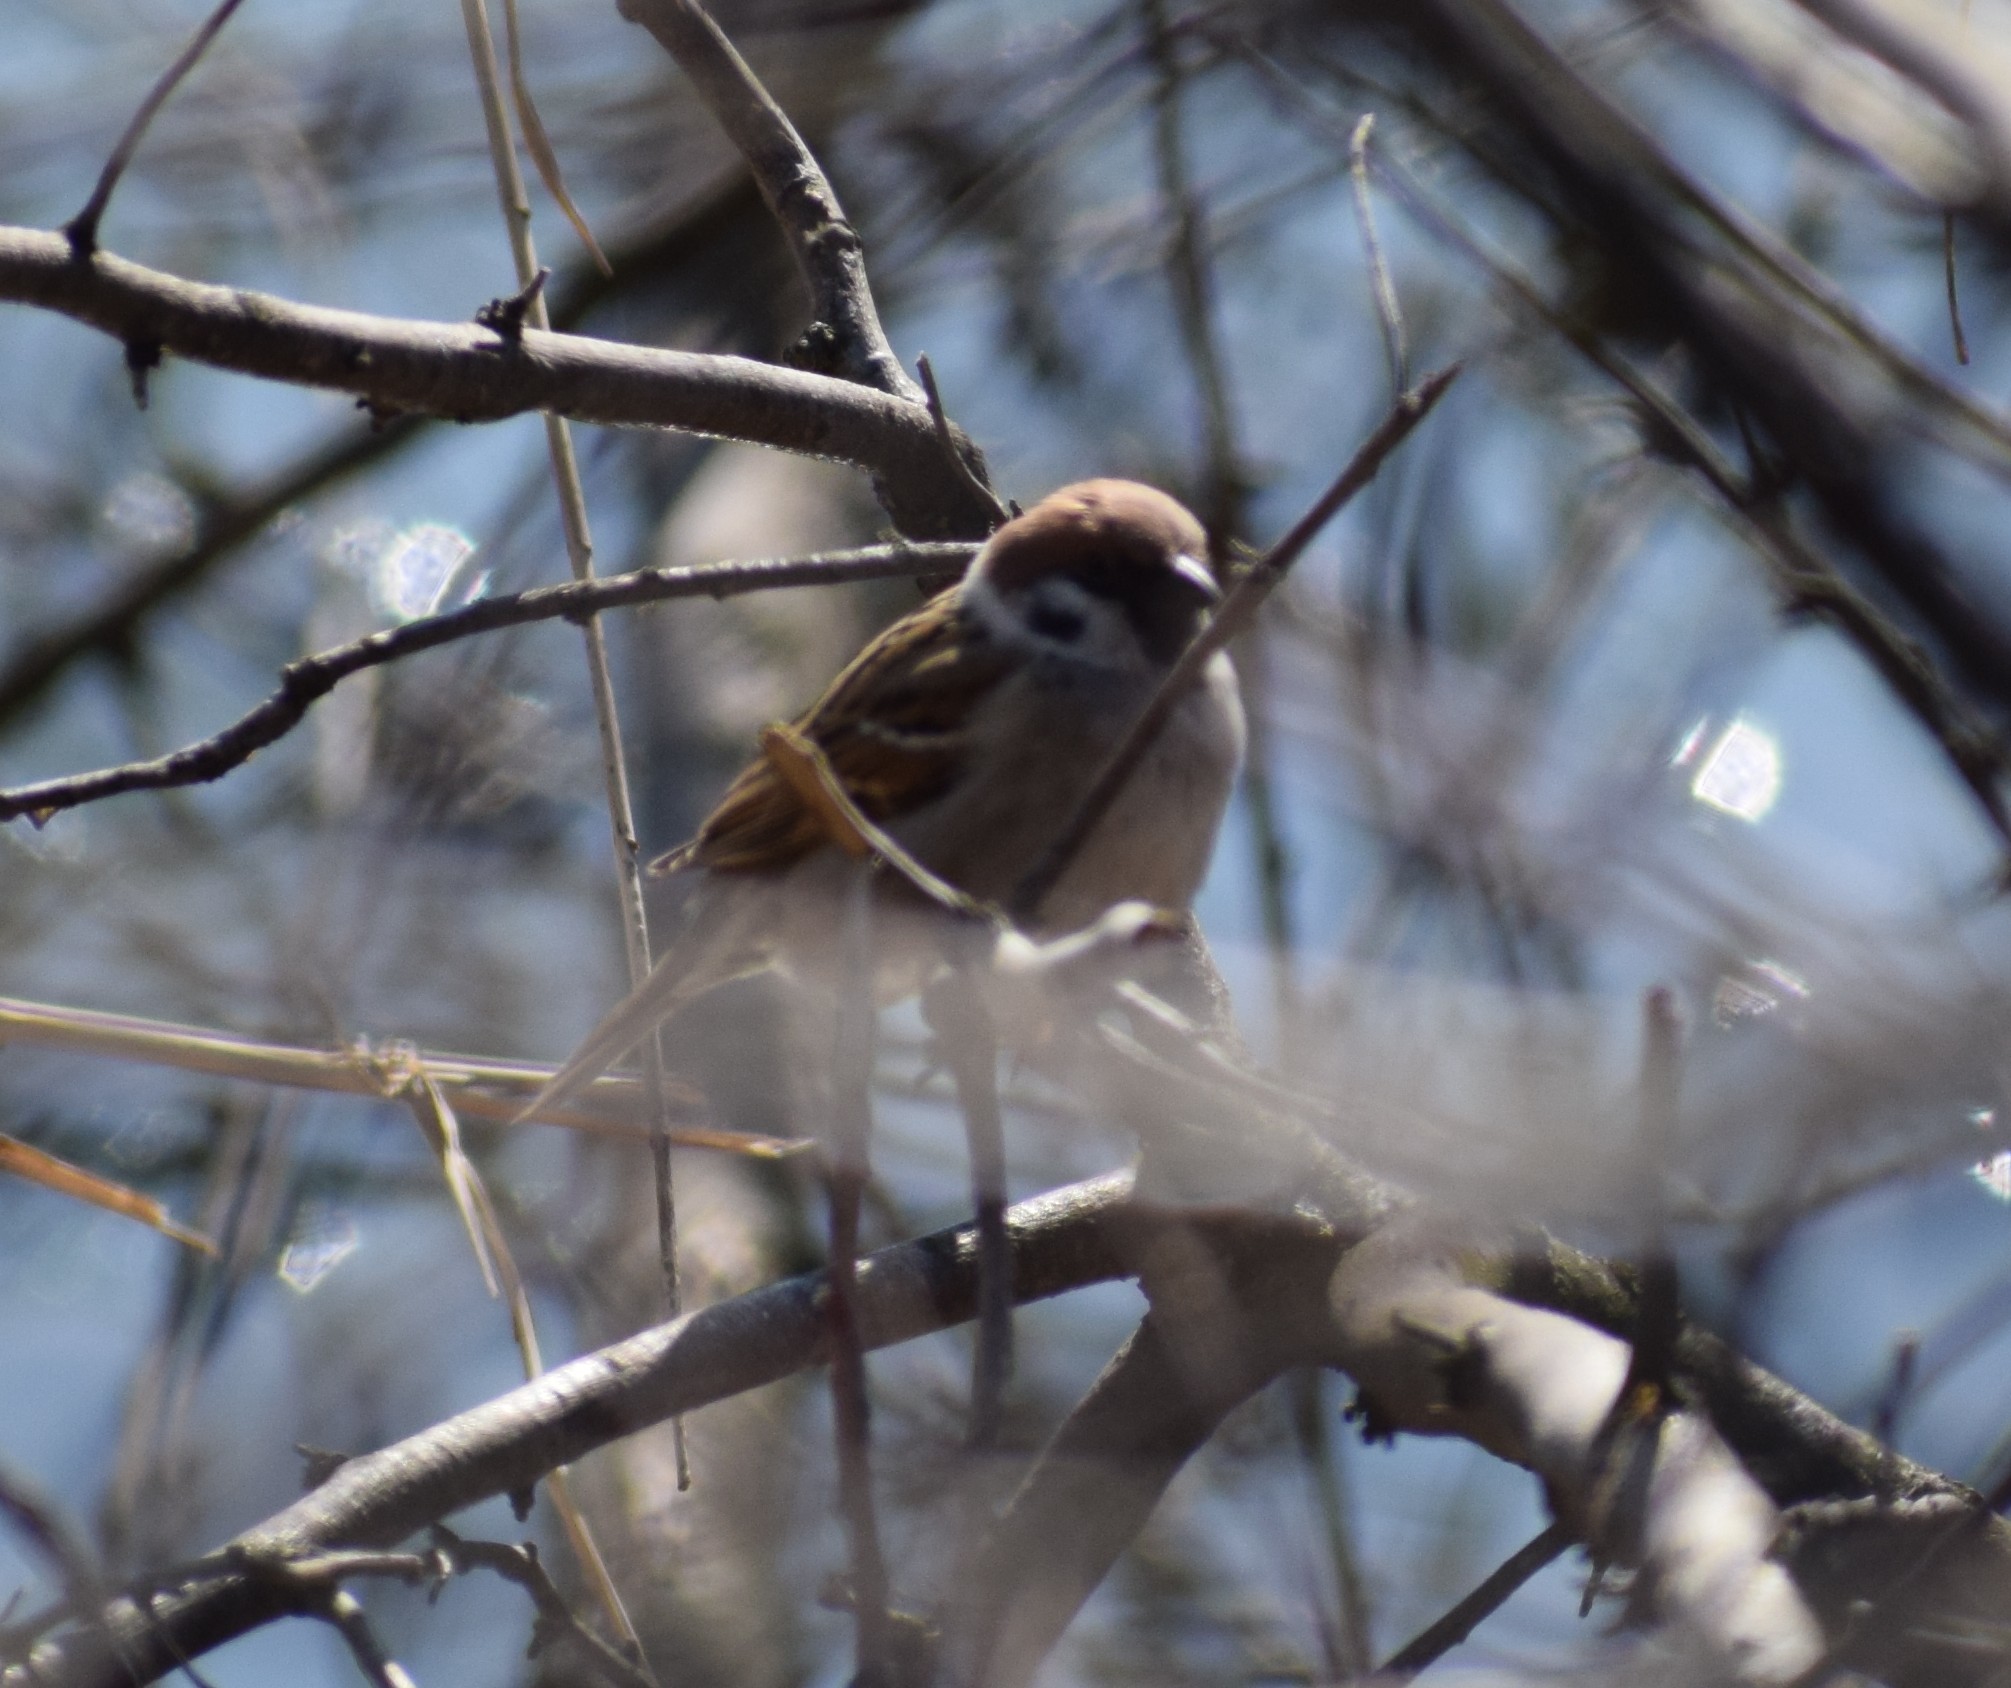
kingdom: Animalia
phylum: Chordata
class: Aves
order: Passeriformes
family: Passeridae
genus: Passer
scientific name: Passer montanus
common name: Eurasian tree sparrow
